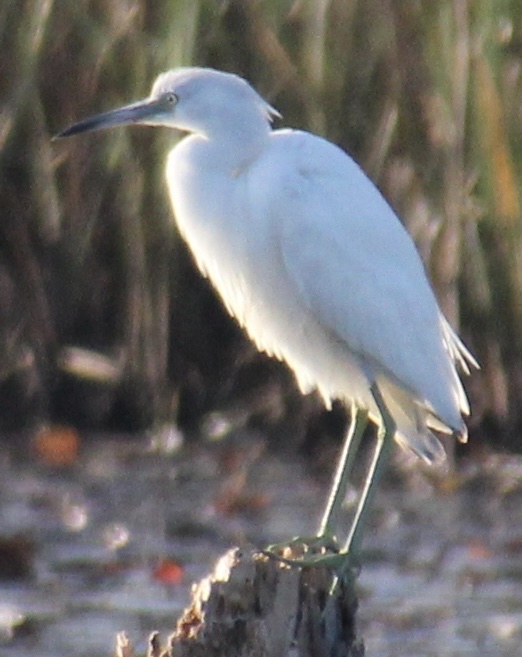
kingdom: Animalia
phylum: Chordata
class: Aves
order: Pelecaniformes
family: Ardeidae
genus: Egretta
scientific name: Egretta caerulea
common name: Little blue heron
